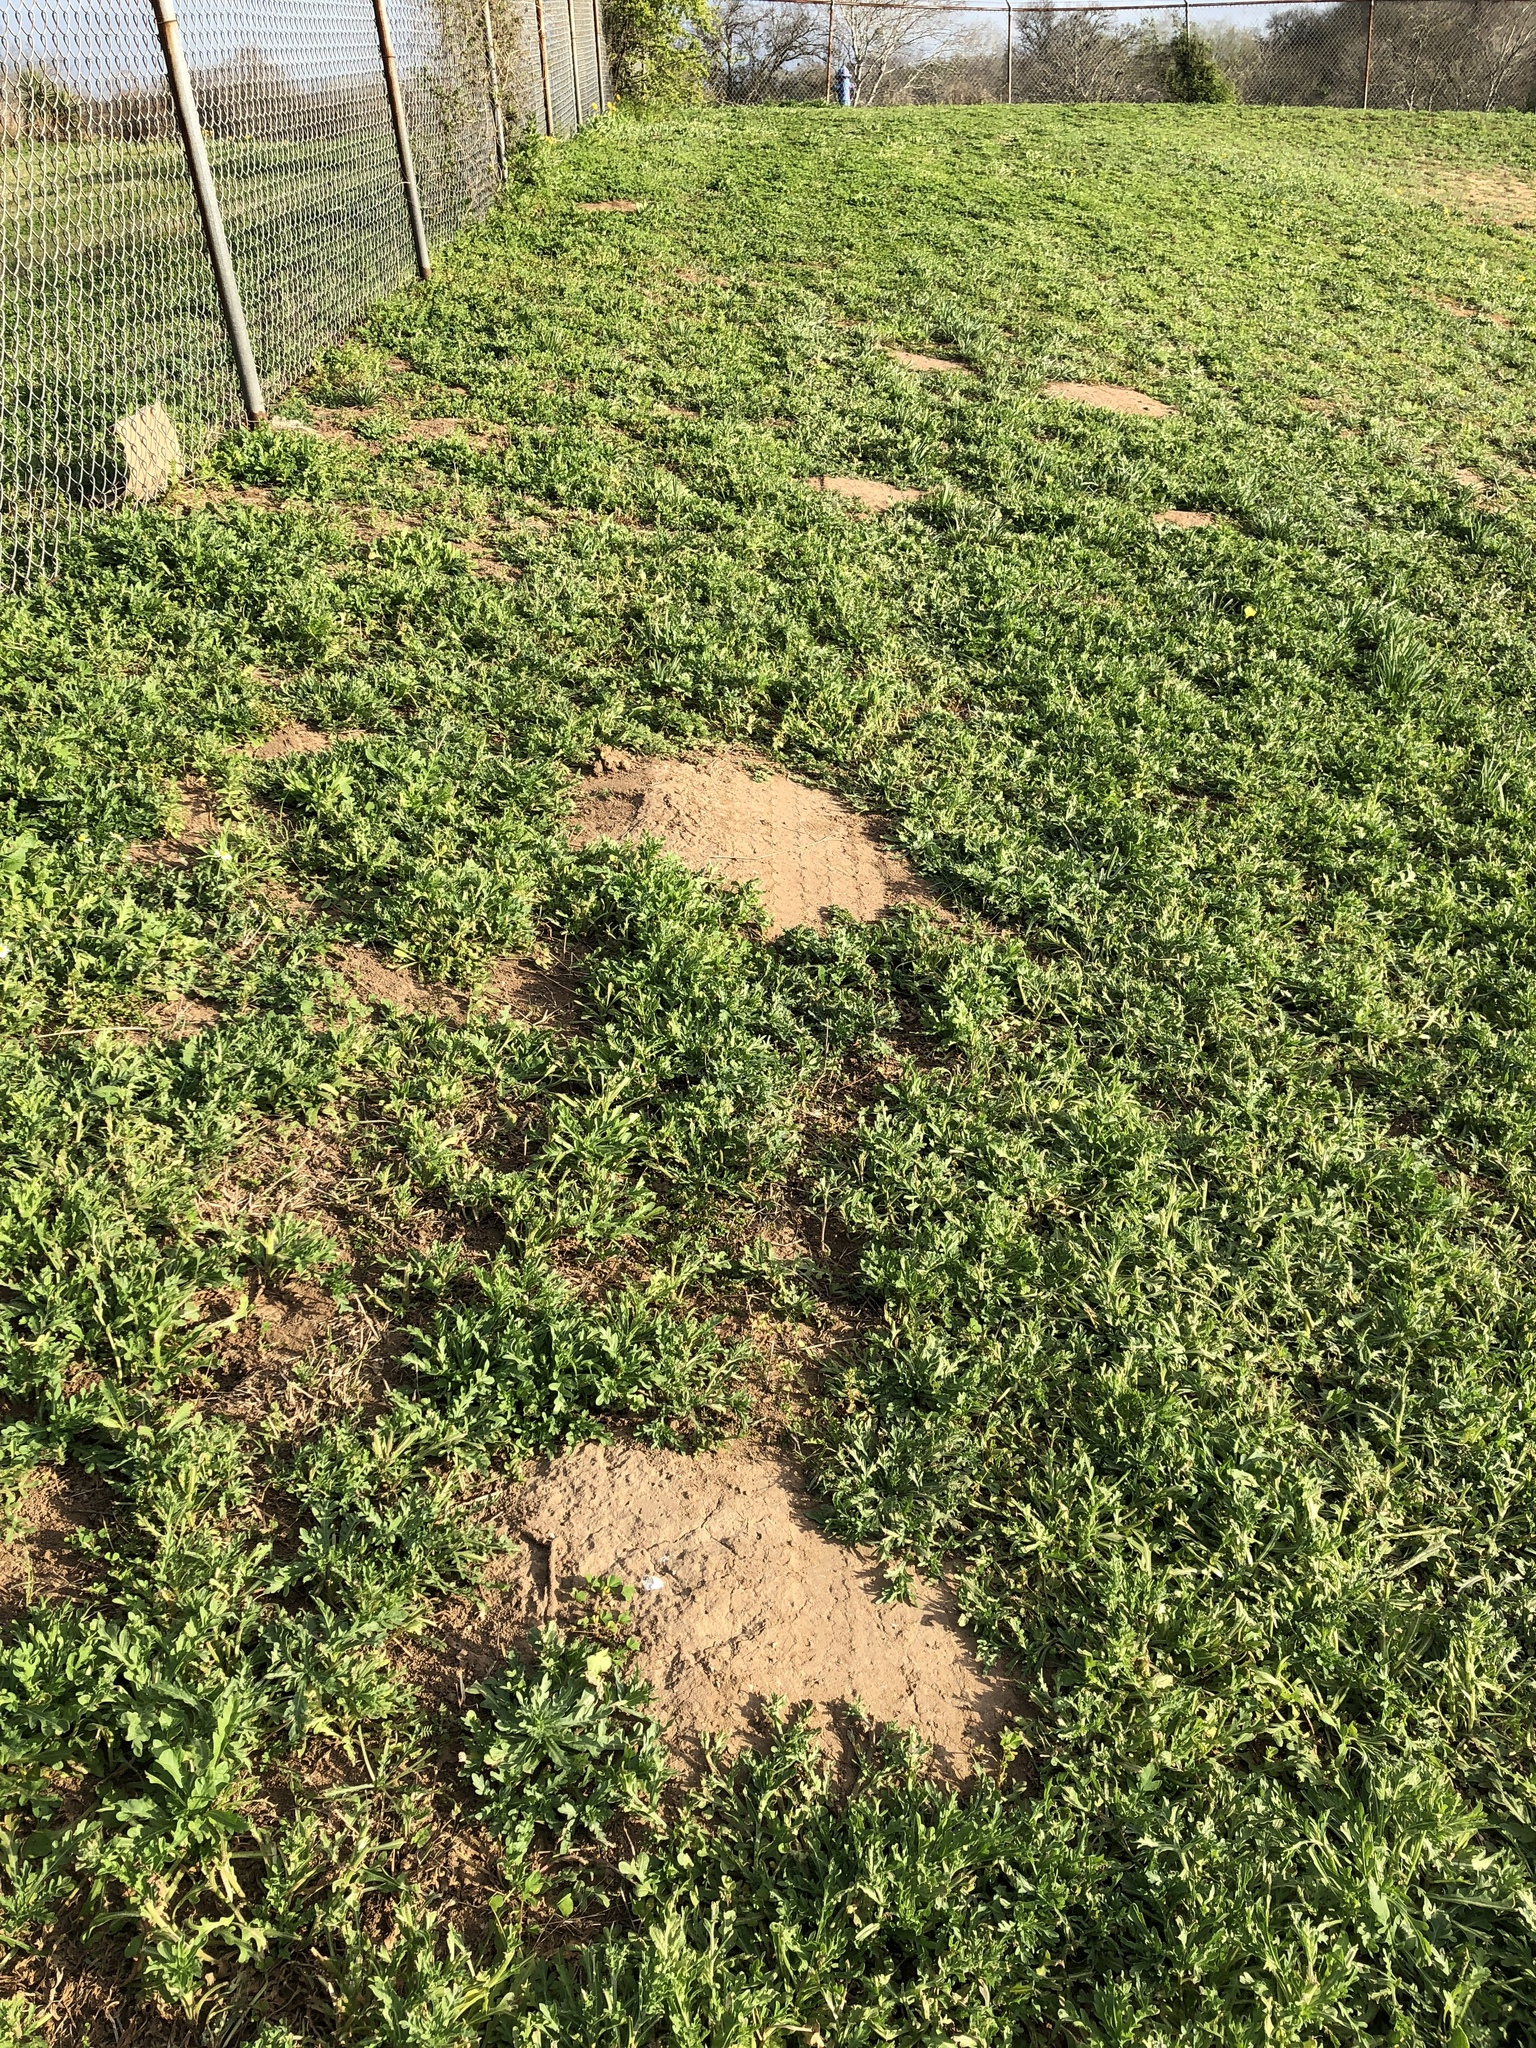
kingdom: Animalia
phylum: Chordata
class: Mammalia
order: Rodentia
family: Geomyidae
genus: Geomys
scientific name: Geomys attwateri
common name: Attwater's pocket gopher
